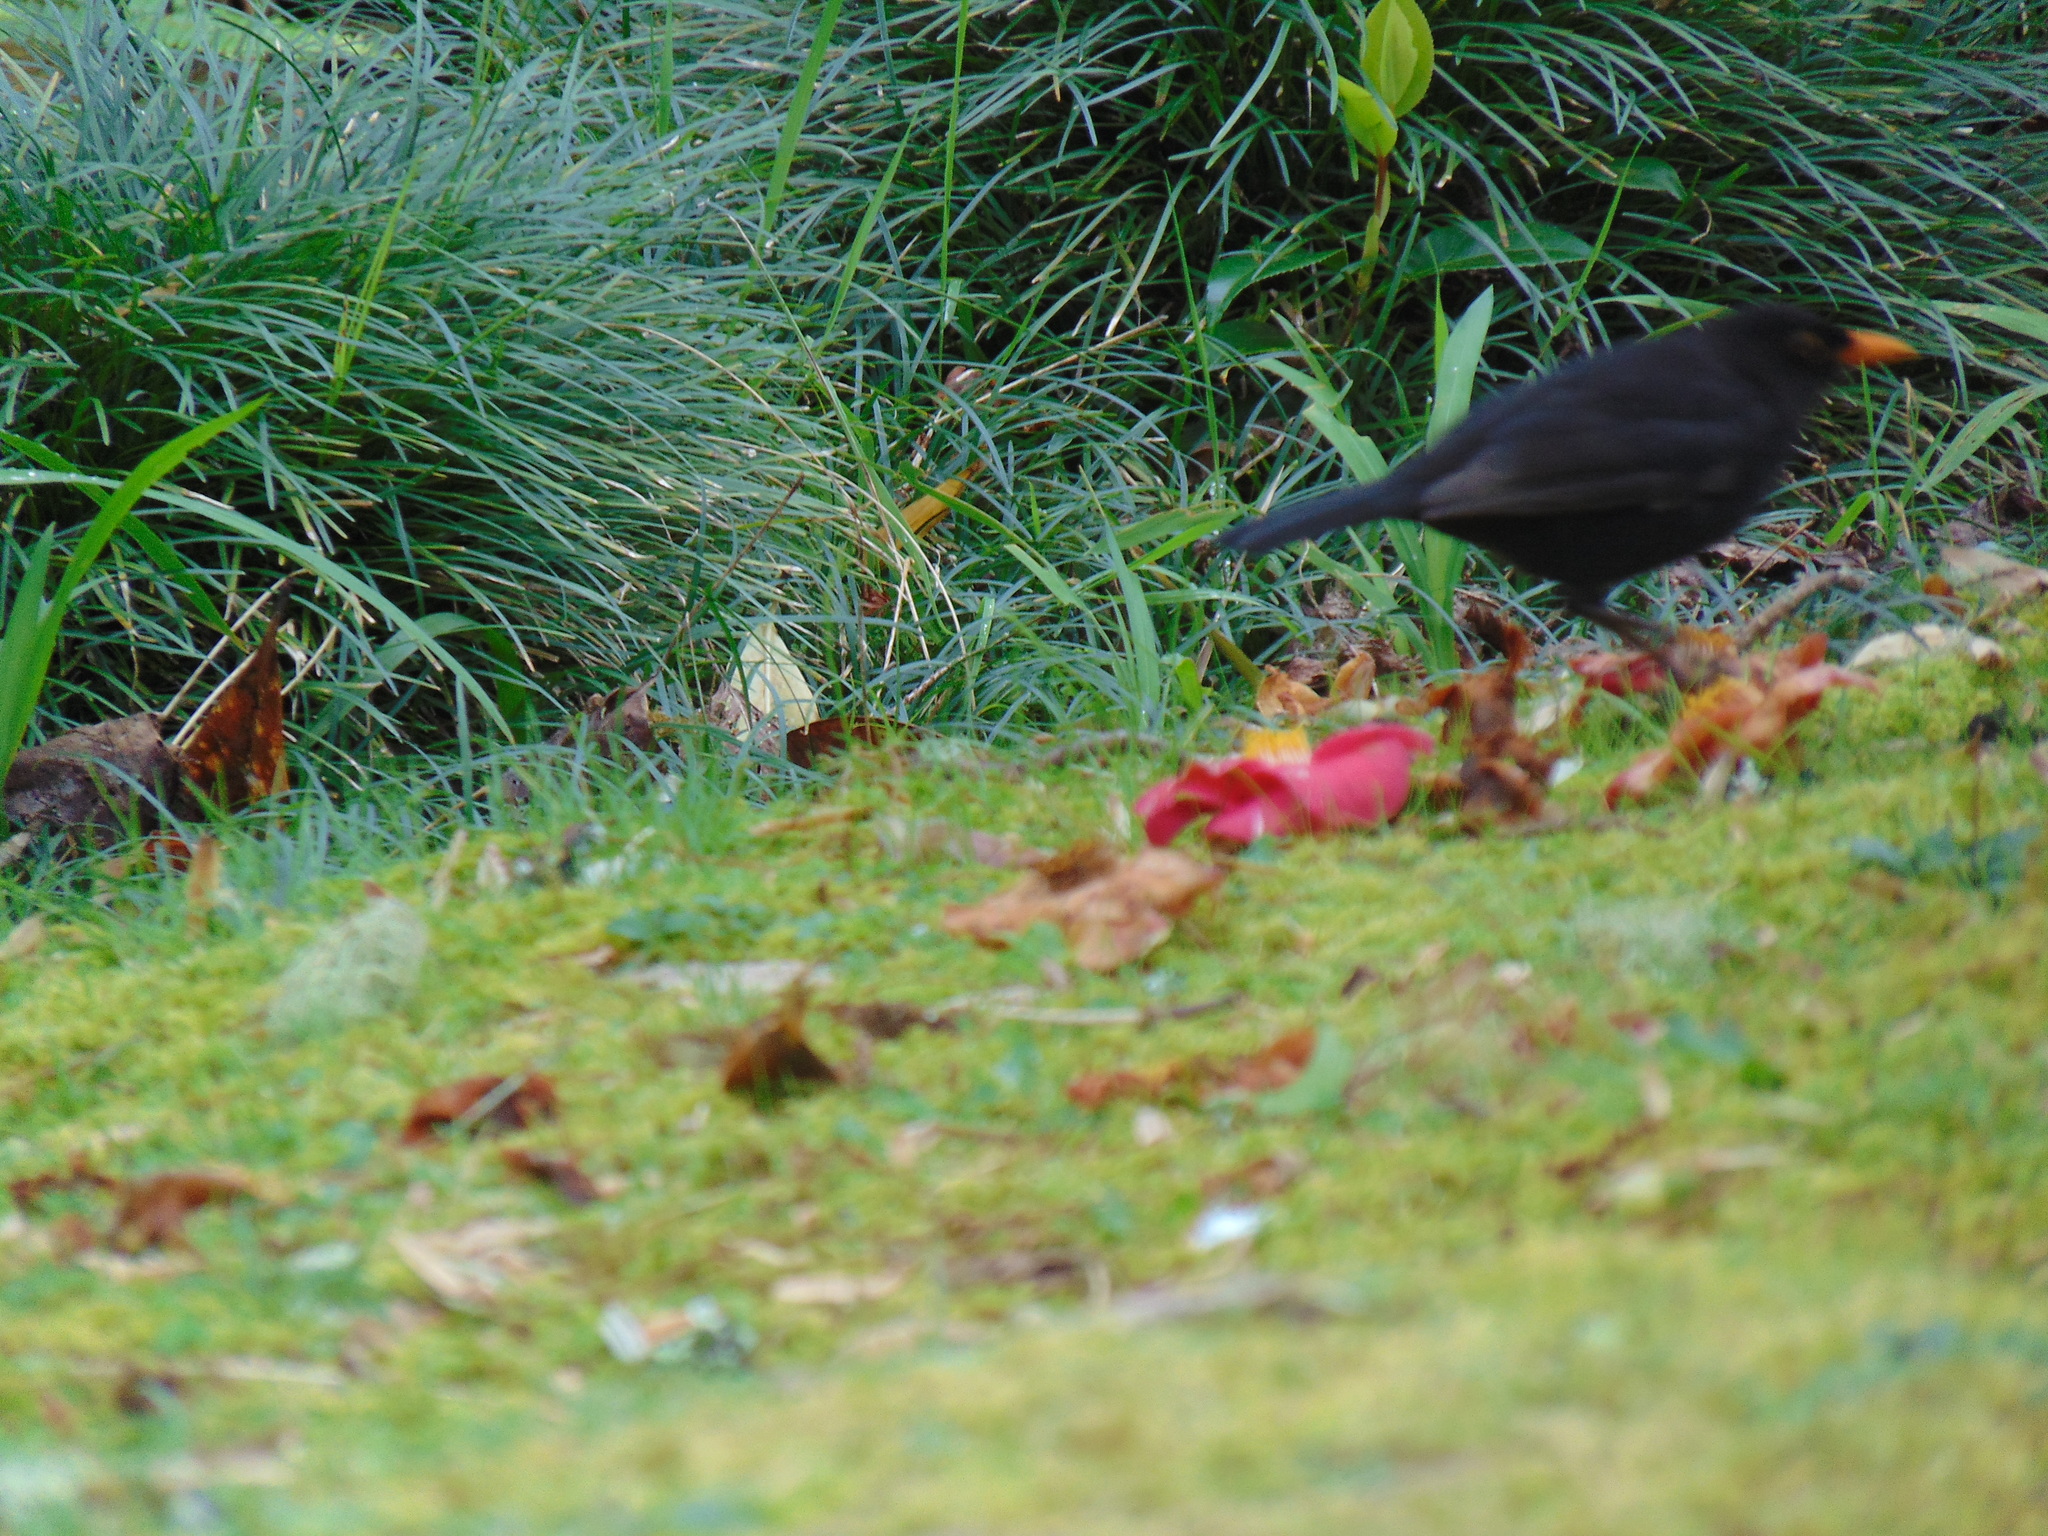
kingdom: Animalia
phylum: Chordata
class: Aves
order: Passeriformes
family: Turdidae
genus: Turdus
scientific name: Turdus merula
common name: Common blackbird
